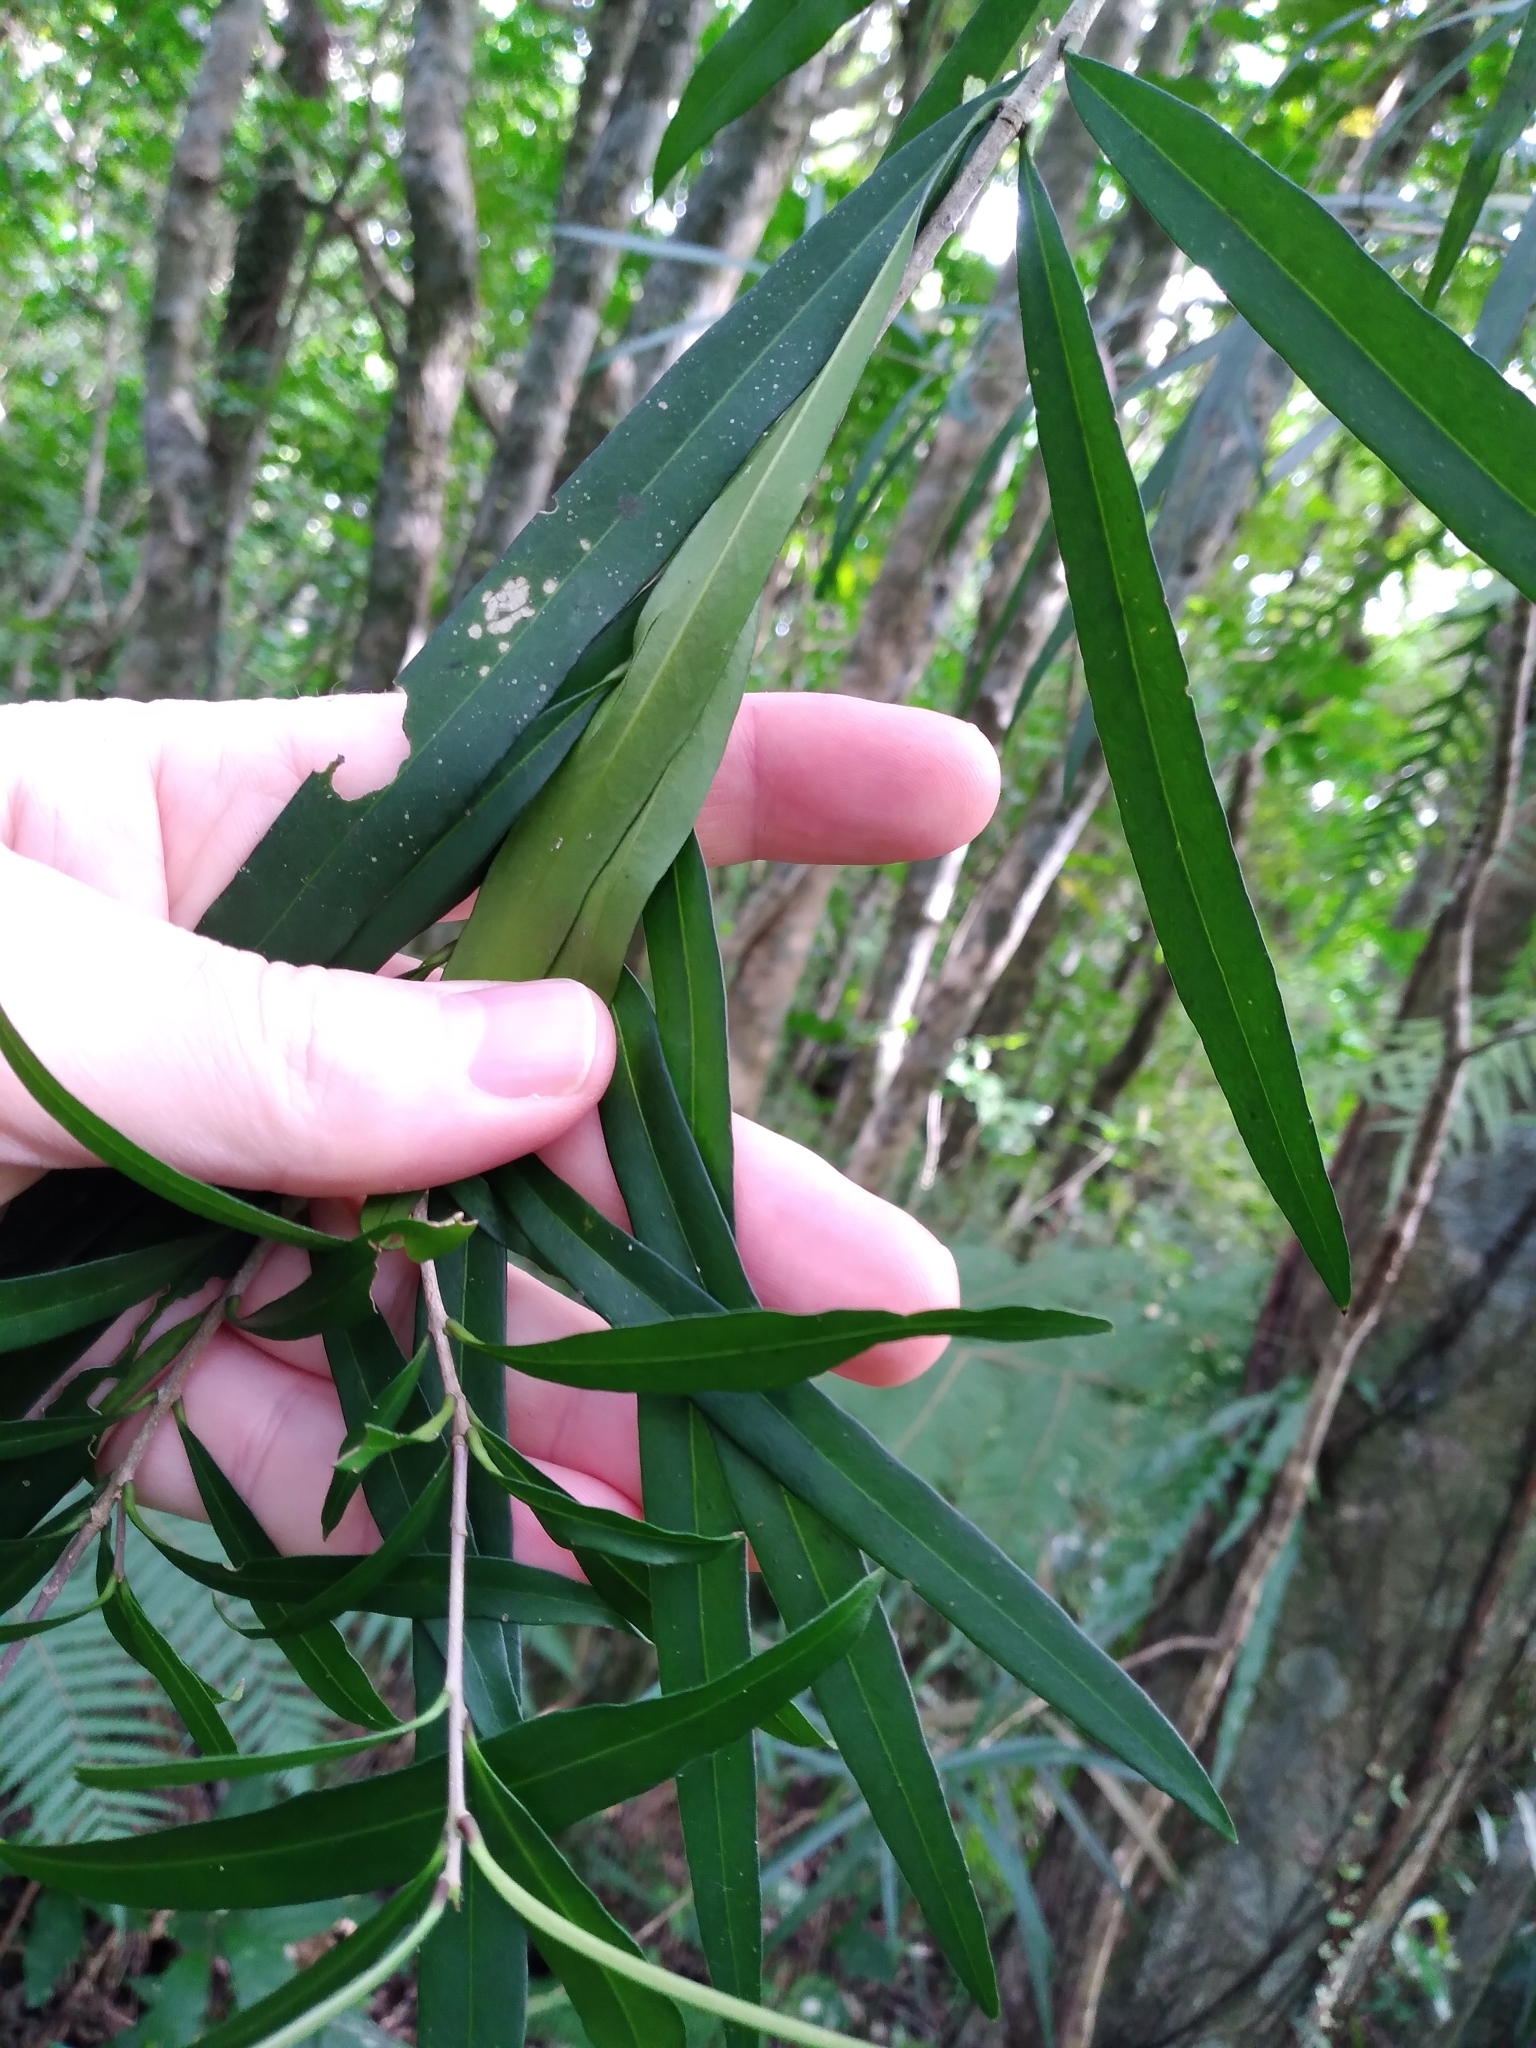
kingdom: Plantae
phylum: Tracheophyta
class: Magnoliopsida
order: Lamiales
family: Oleaceae
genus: Nestegis
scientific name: Nestegis lanceolata
